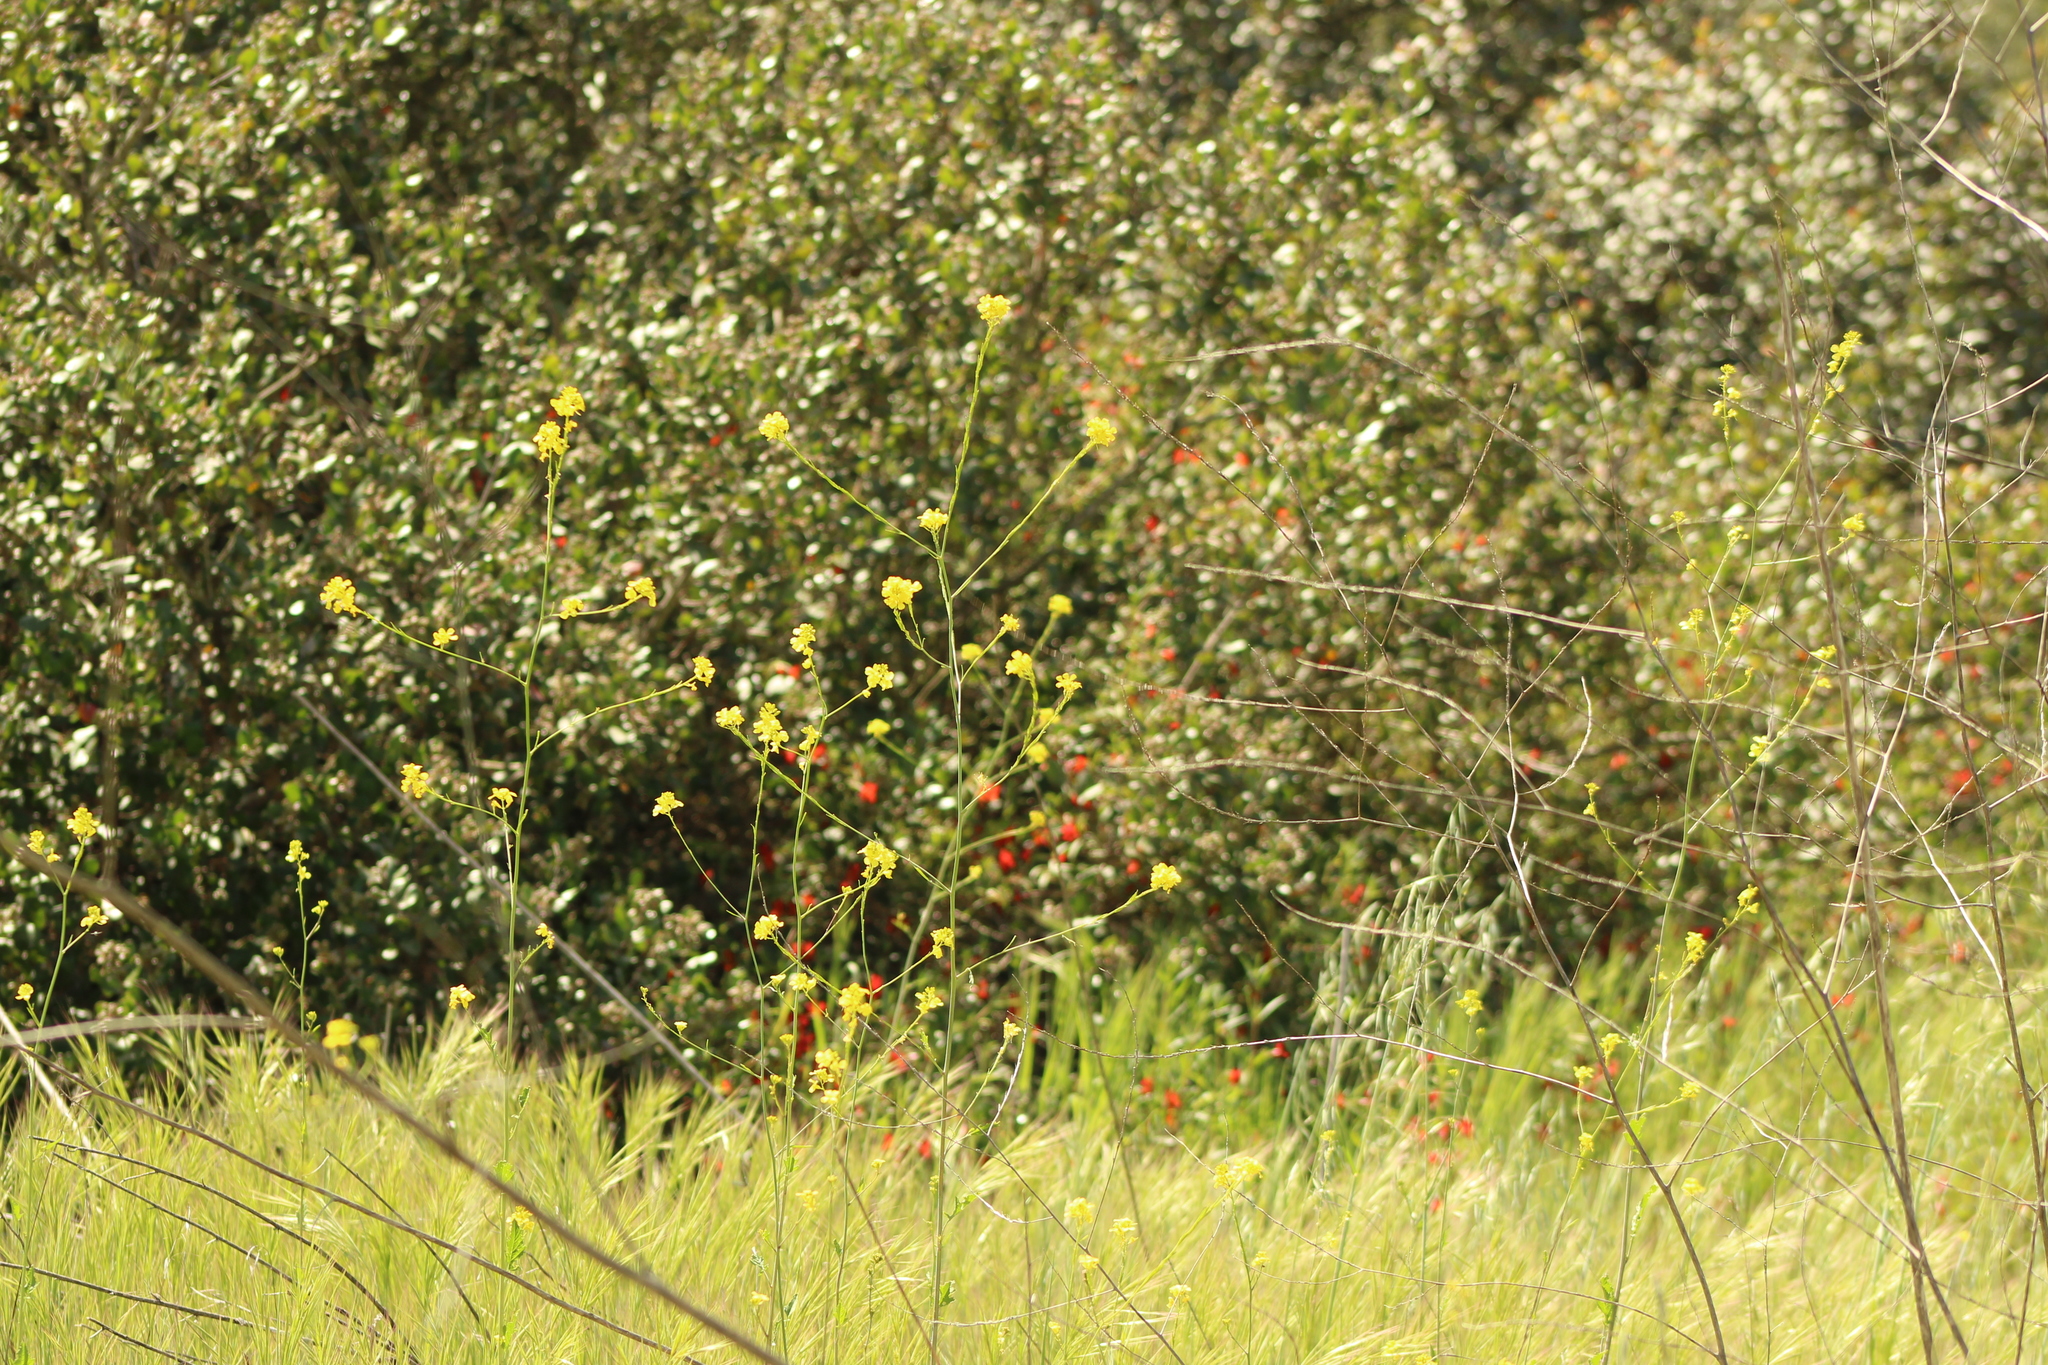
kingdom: Plantae
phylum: Tracheophyta
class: Magnoliopsida
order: Brassicales
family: Brassicaceae
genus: Brassica
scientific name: Brassica nigra
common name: Black mustard
